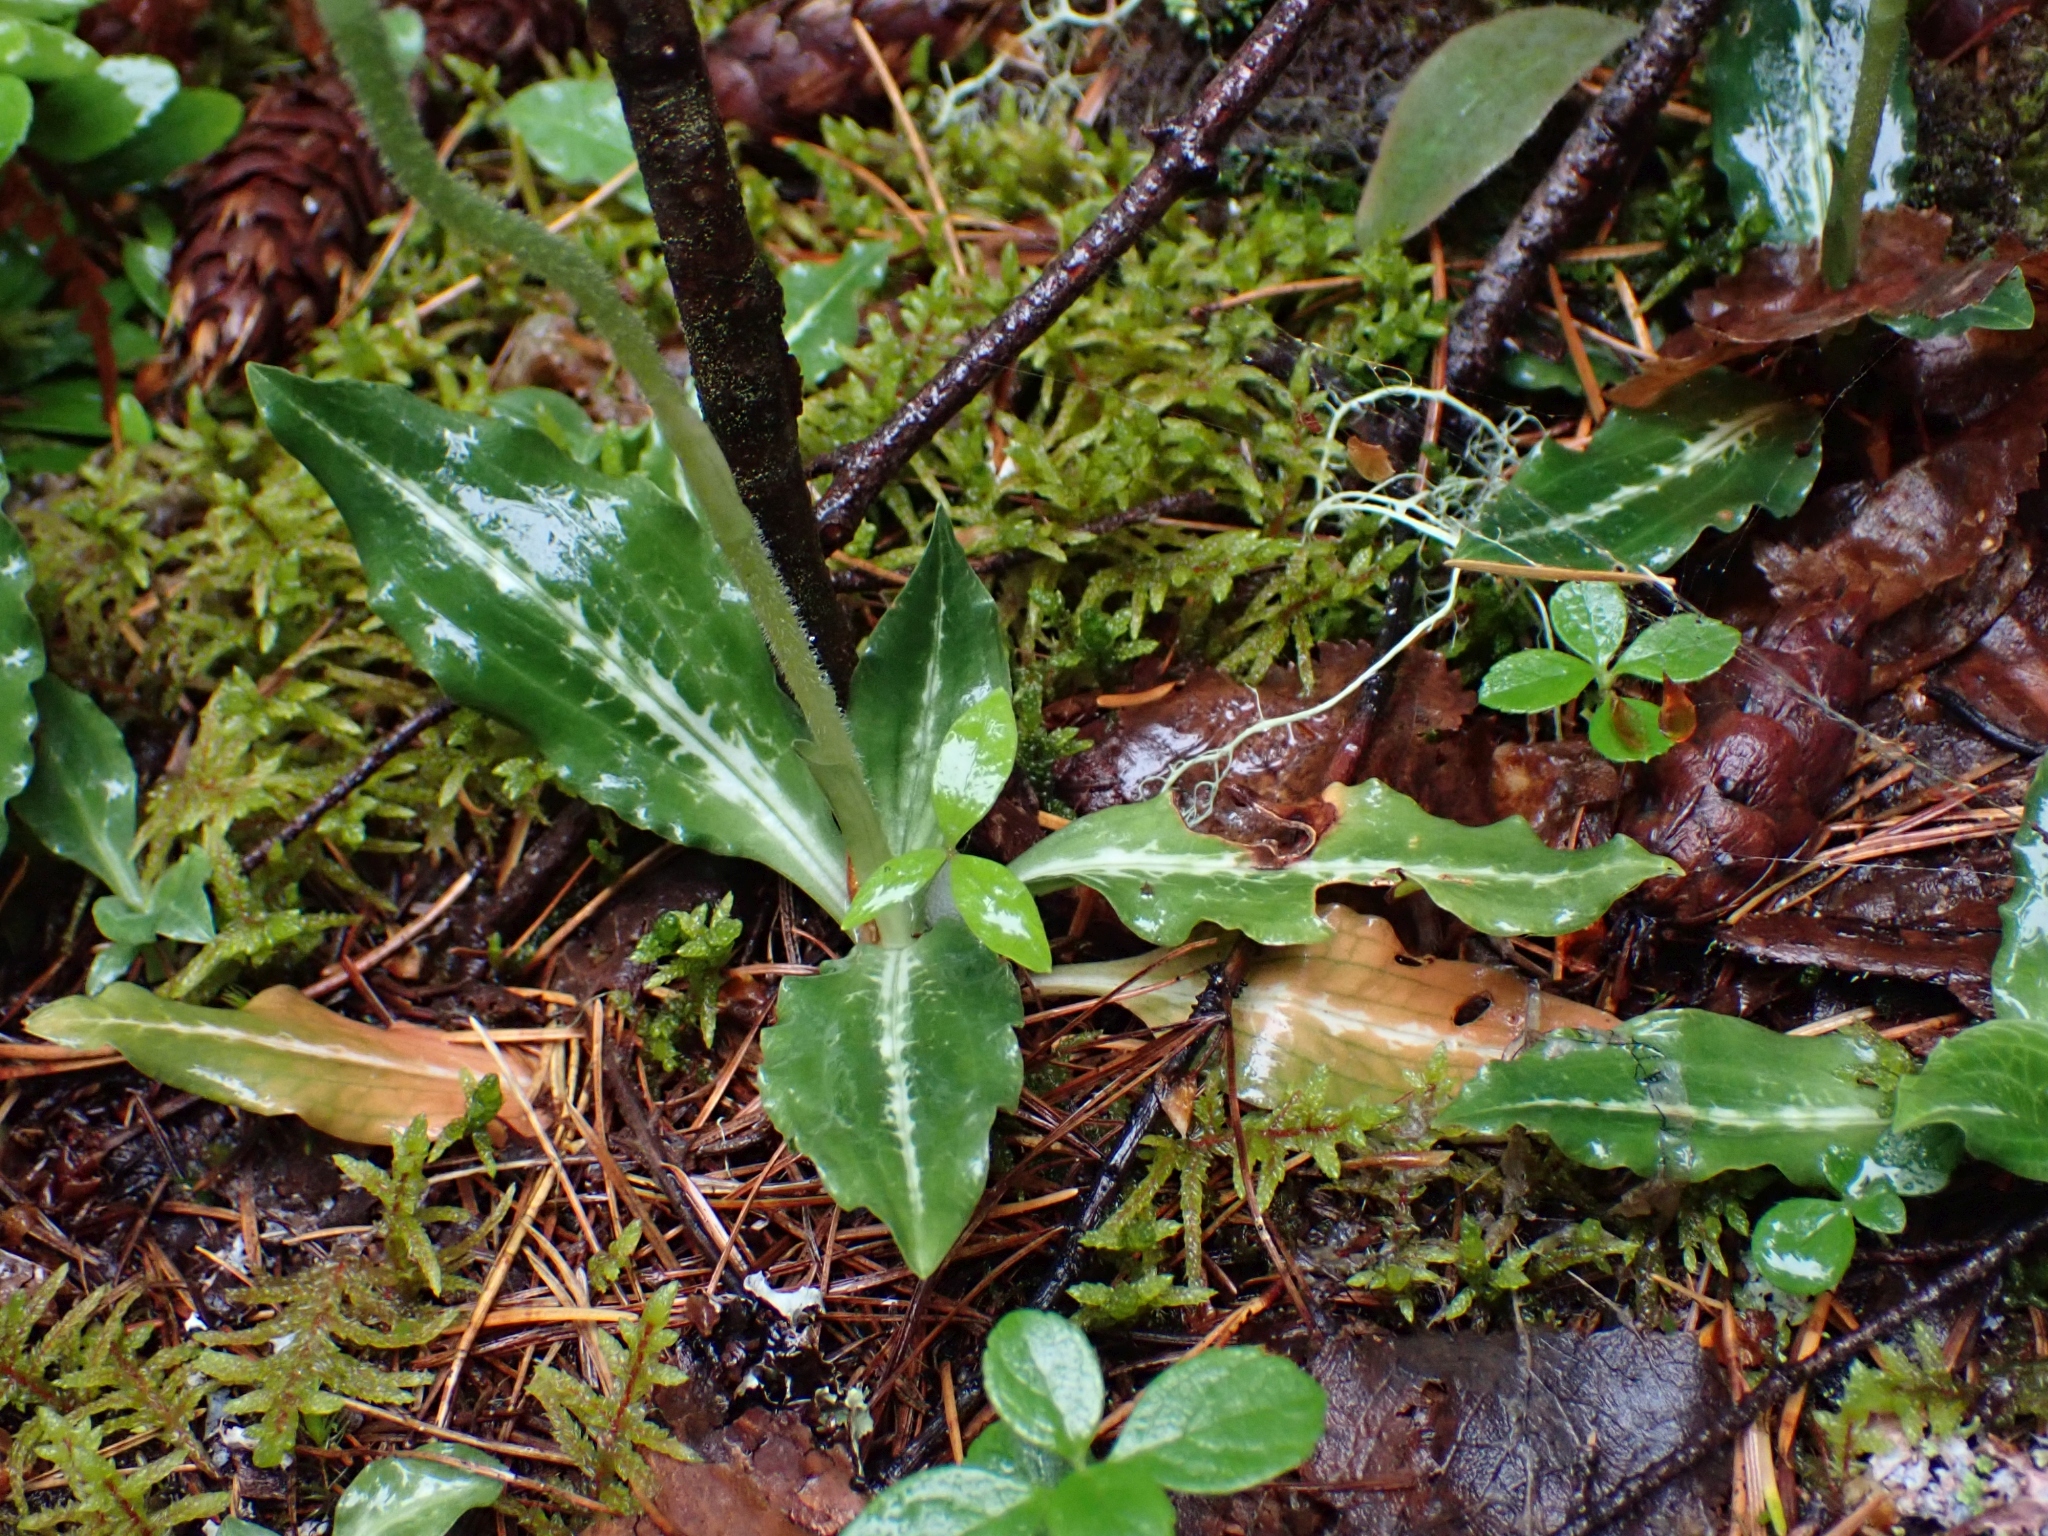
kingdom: Plantae
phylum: Tracheophyta
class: Liliopsida
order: Asparagales
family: Orchidaceae
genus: Goodyera
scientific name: Goodyera oblongifolia
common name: Giant rattlesnake-plantain
